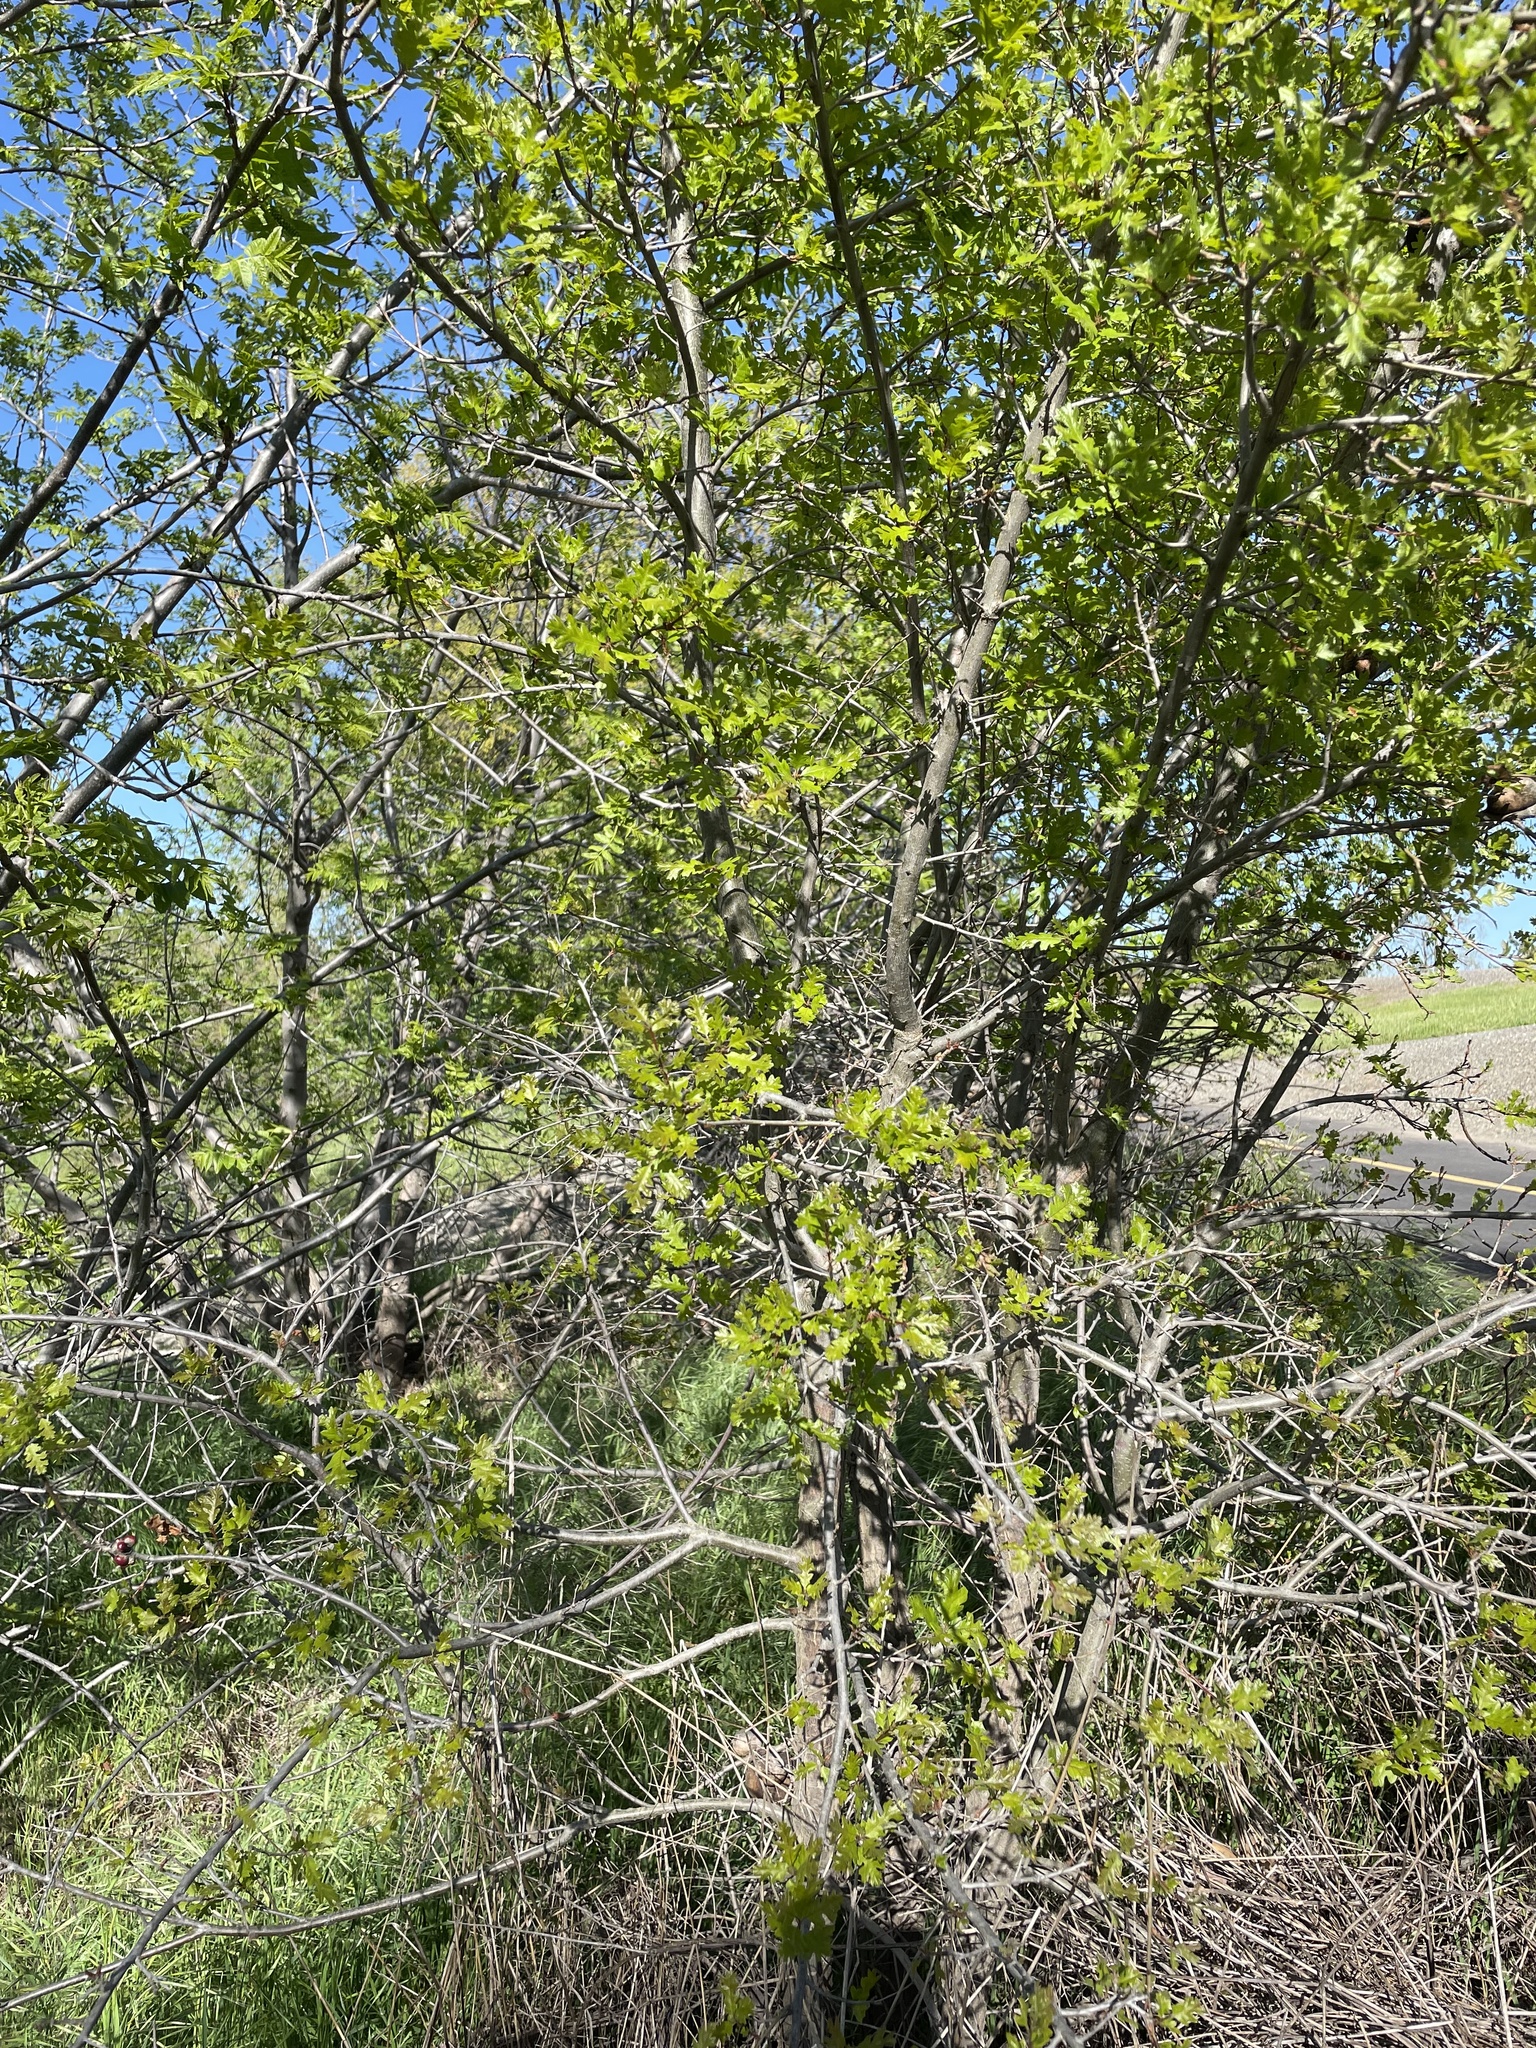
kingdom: Plantae
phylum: Tracheophyta
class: Magnoliopsida
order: Fagales
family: Fagaceae
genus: Quercus
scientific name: Quercus lobata
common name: Valley oak
